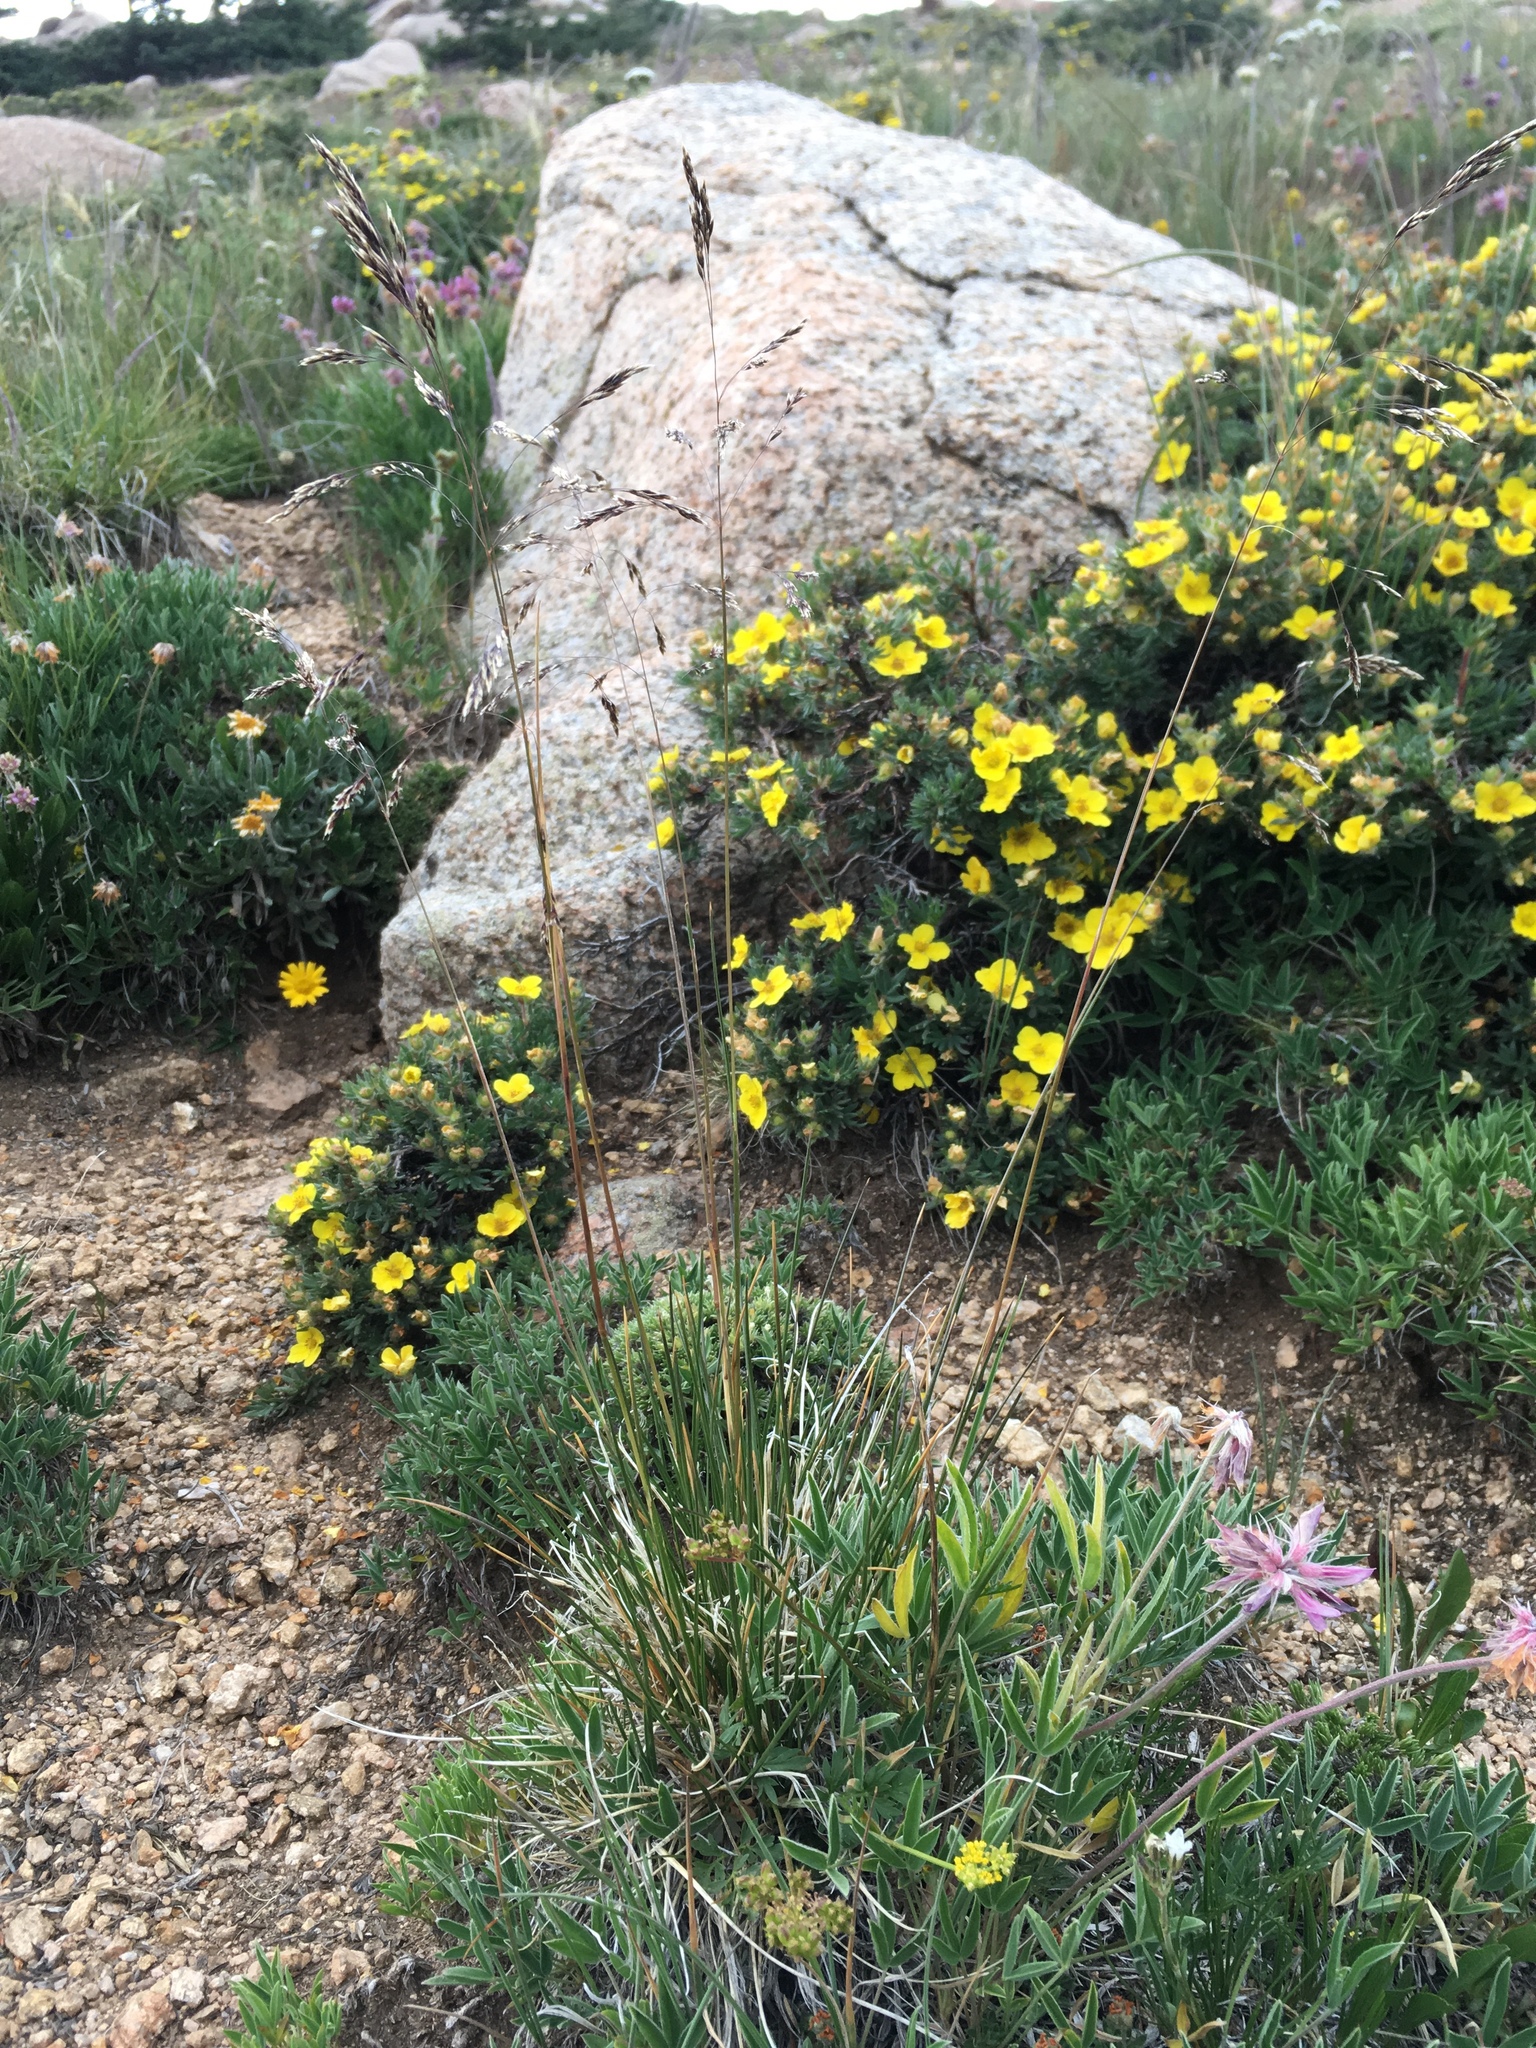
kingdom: Plantae
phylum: Tracheophyta
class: Liliopsida
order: Poales
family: Poaceae
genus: Deschampsia
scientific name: Deschampsia cespitosa
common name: Tufted hair-grass
